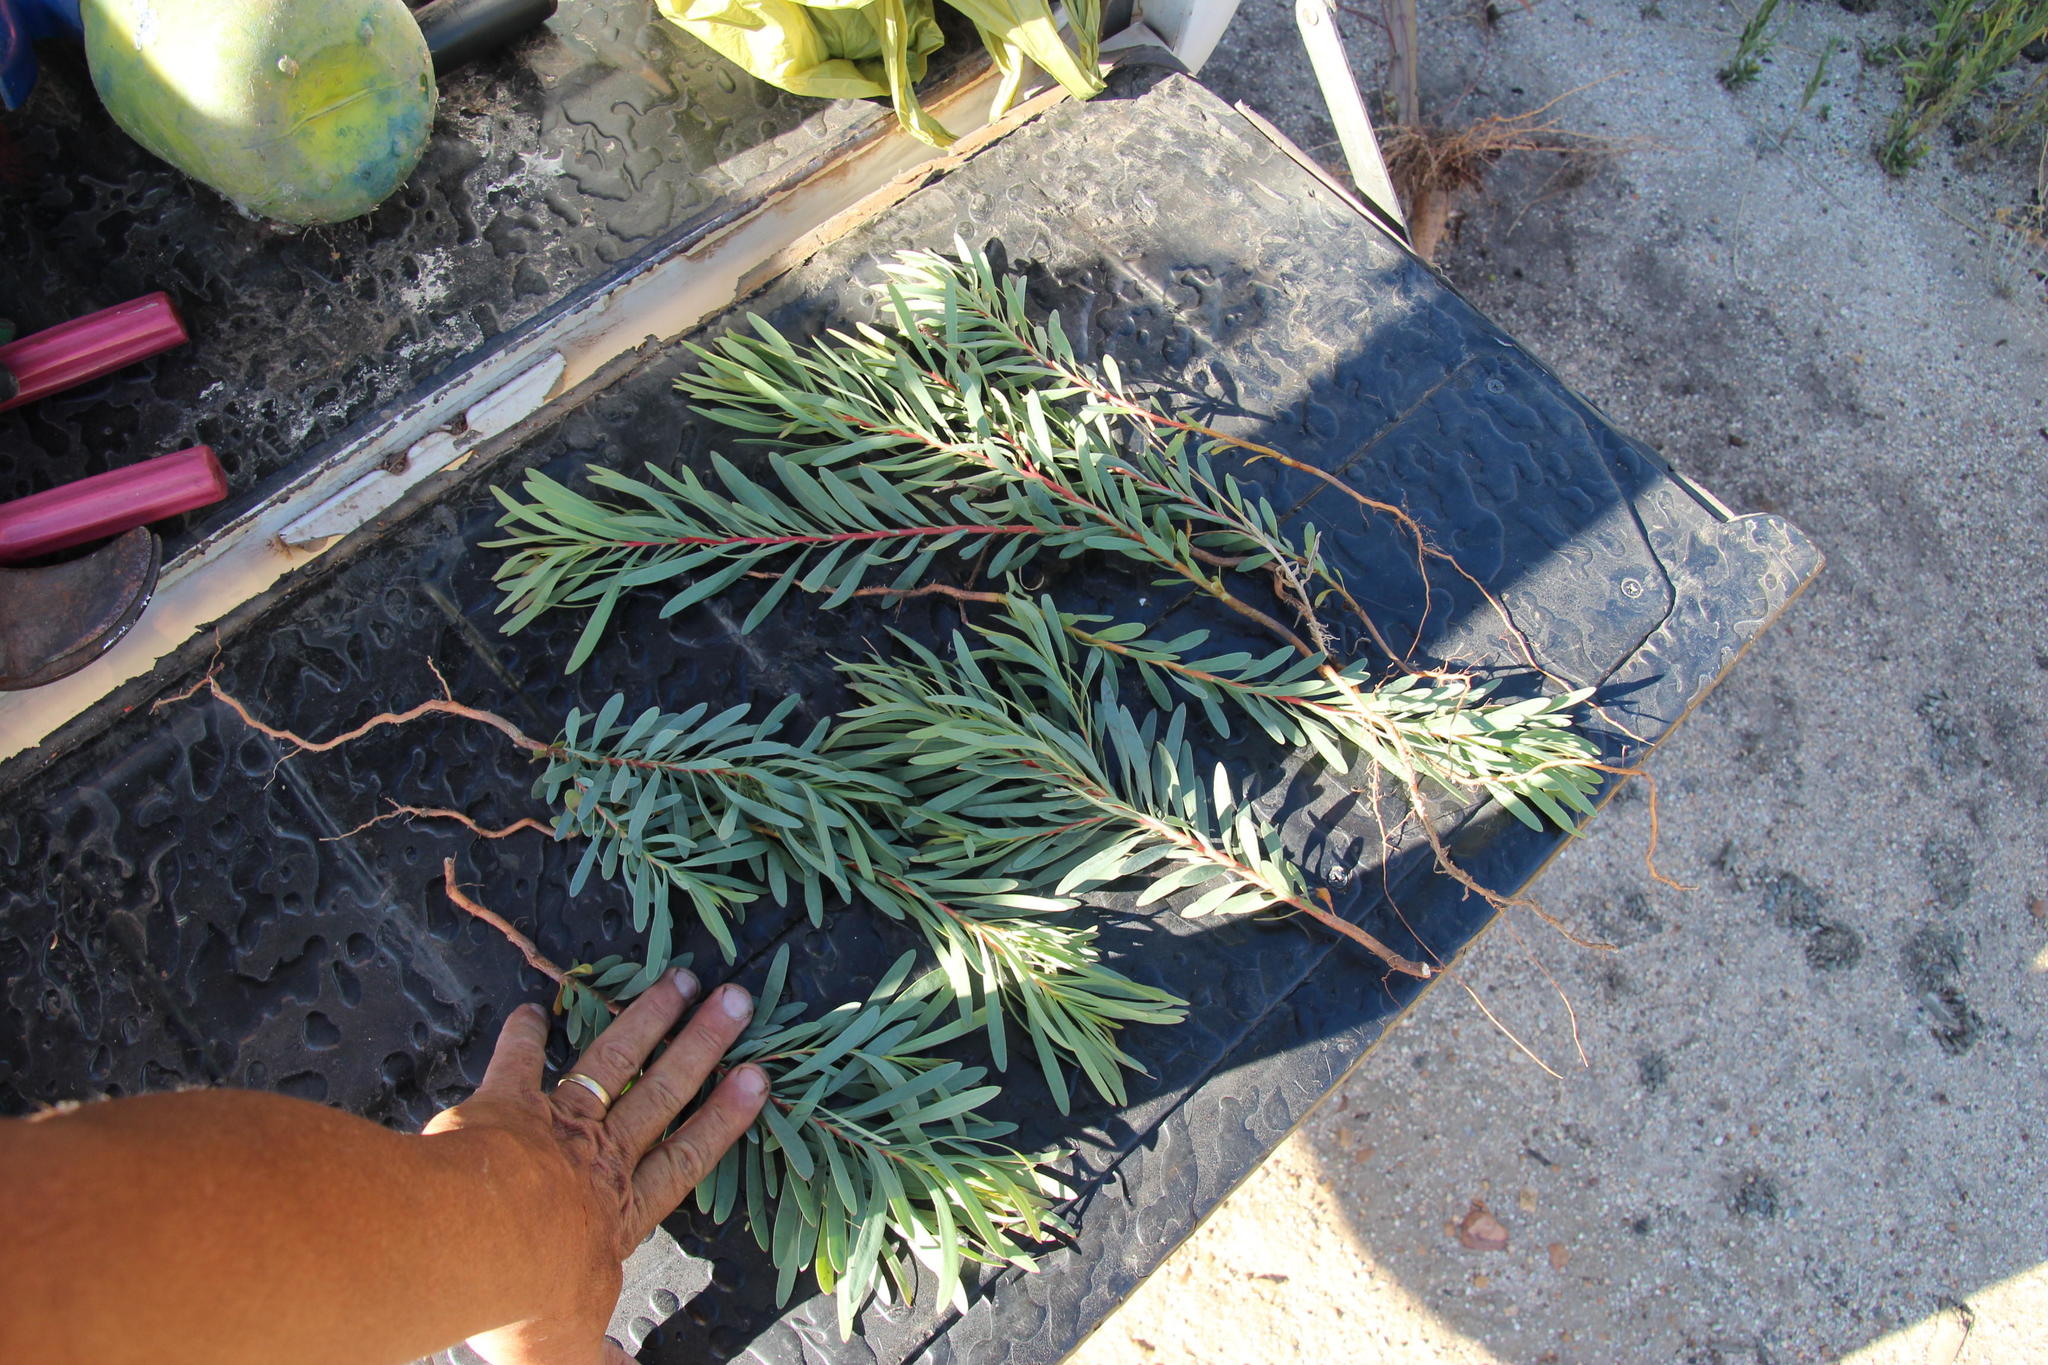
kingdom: Plantae
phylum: Tracheophyta
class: Magnoliopsida
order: Proteales
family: Proteaceae
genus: Protea
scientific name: Protea repens
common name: Sugarbush
